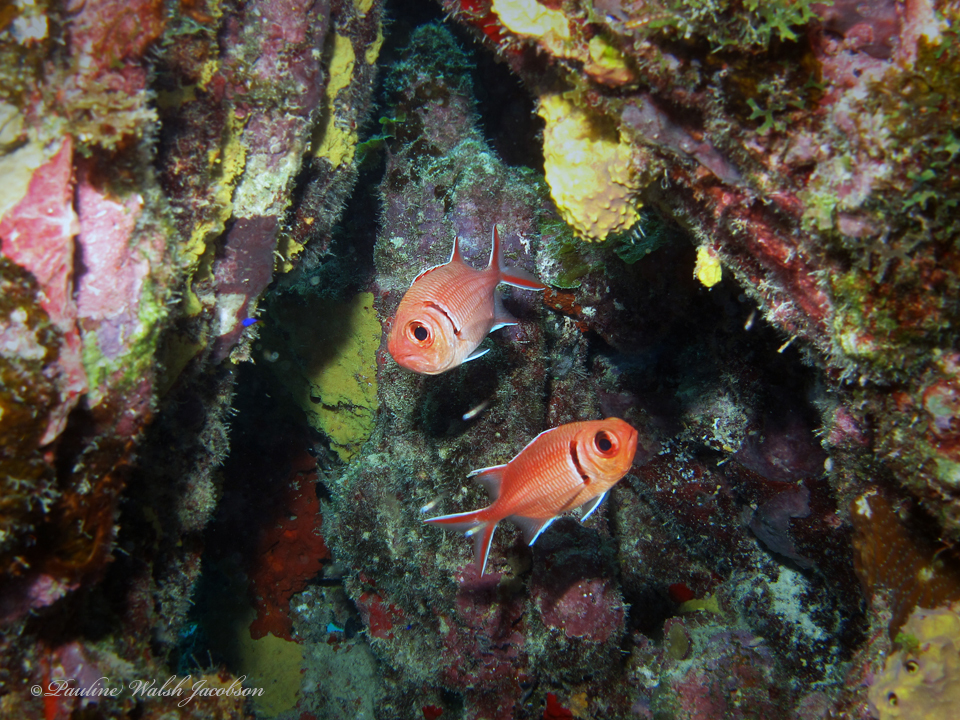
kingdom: Animalia
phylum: Chordata
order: Beryciformes
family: Holocentridae
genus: Myripristis
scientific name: Myripristis jacobus
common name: Blackbar soldierfish
